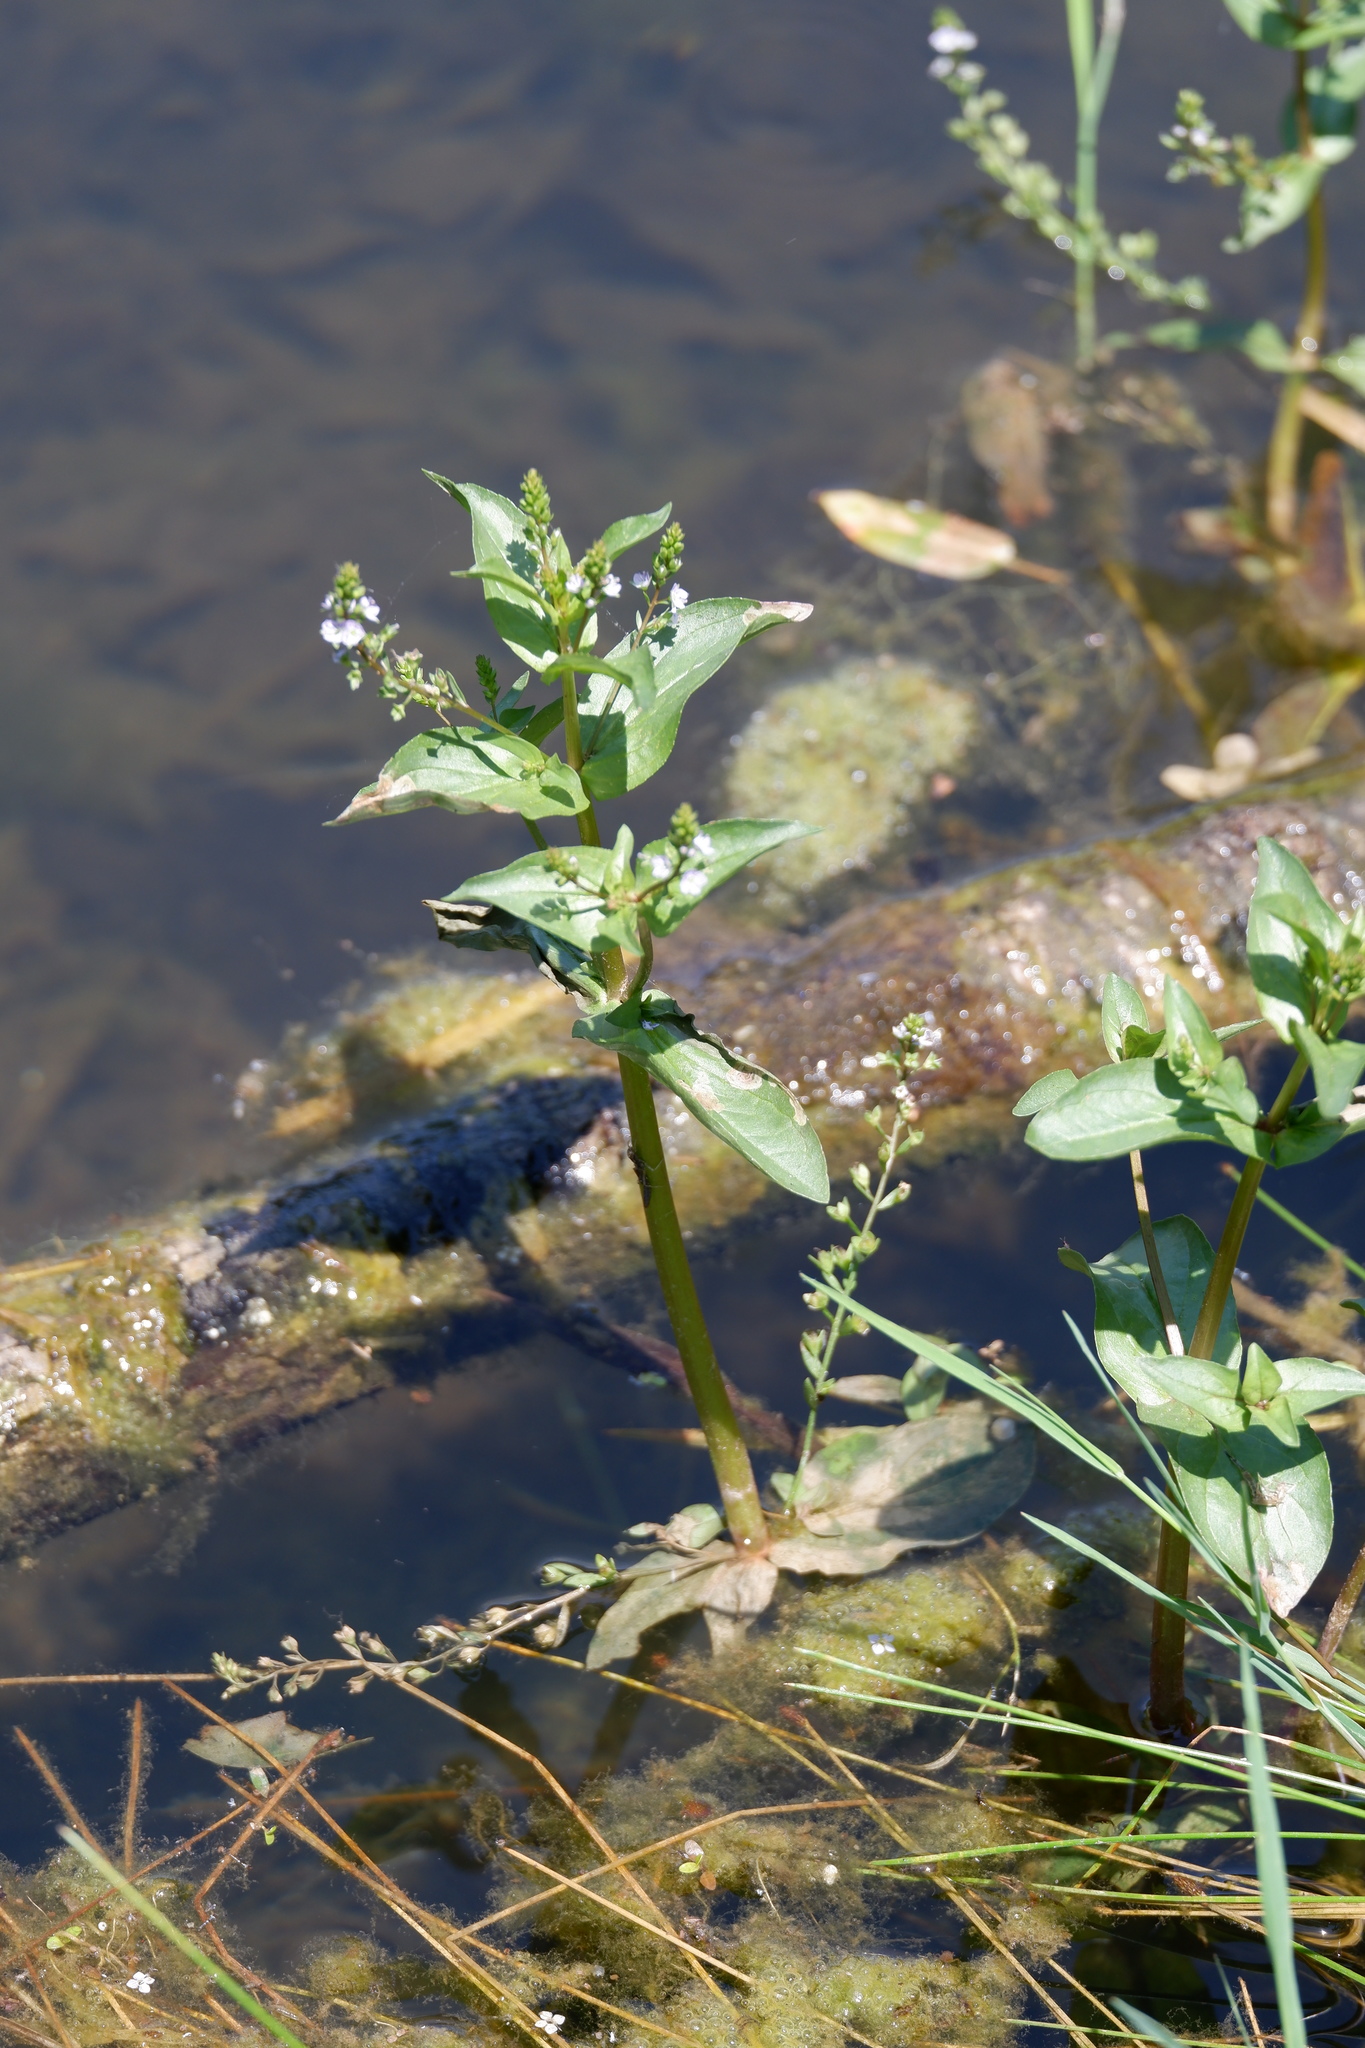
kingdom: Plantae
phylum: Tracheophyta
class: Magnoliopsida
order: Lamiales
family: Plantaginaceae
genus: Veronica
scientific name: Veronica anagallis-aquatica
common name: Water speedwell
